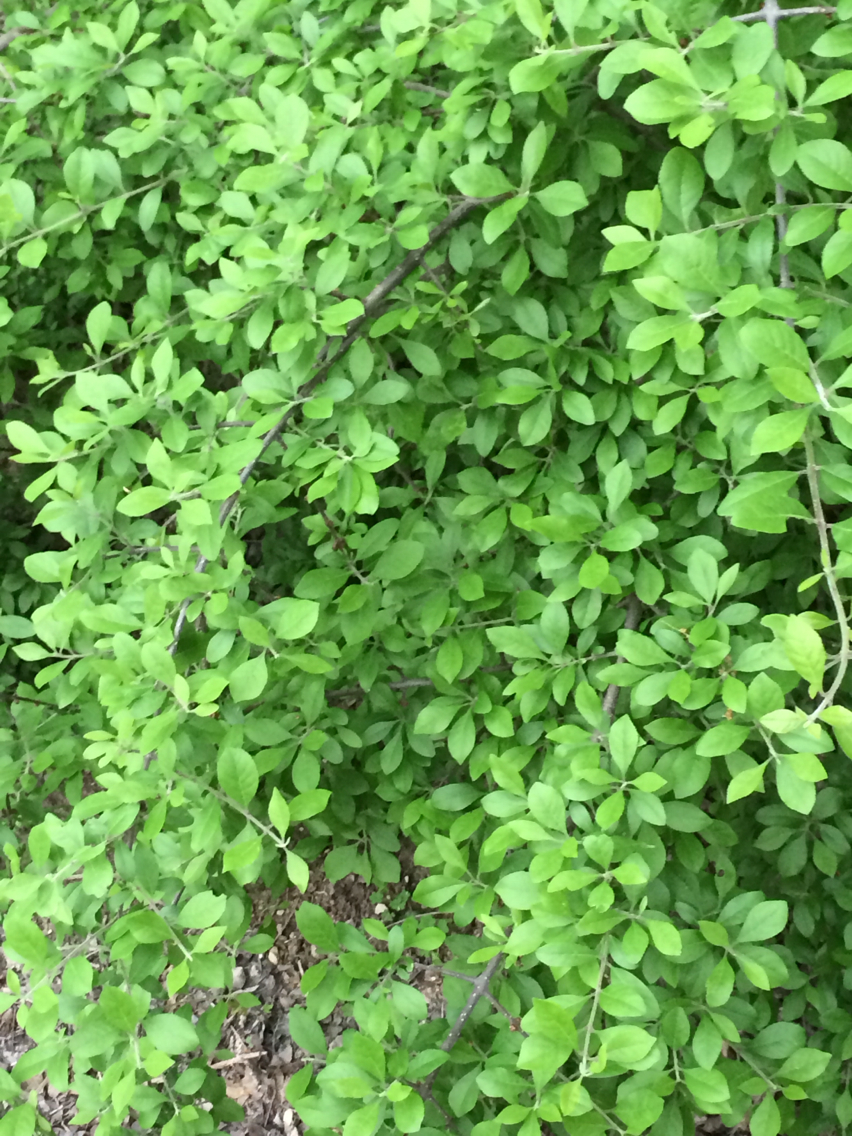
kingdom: Plantae
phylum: Tracheophyta
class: Magnoliopsida
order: Lamiales
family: Oleaceae
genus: Forestiera
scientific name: Forestiera pubescens
